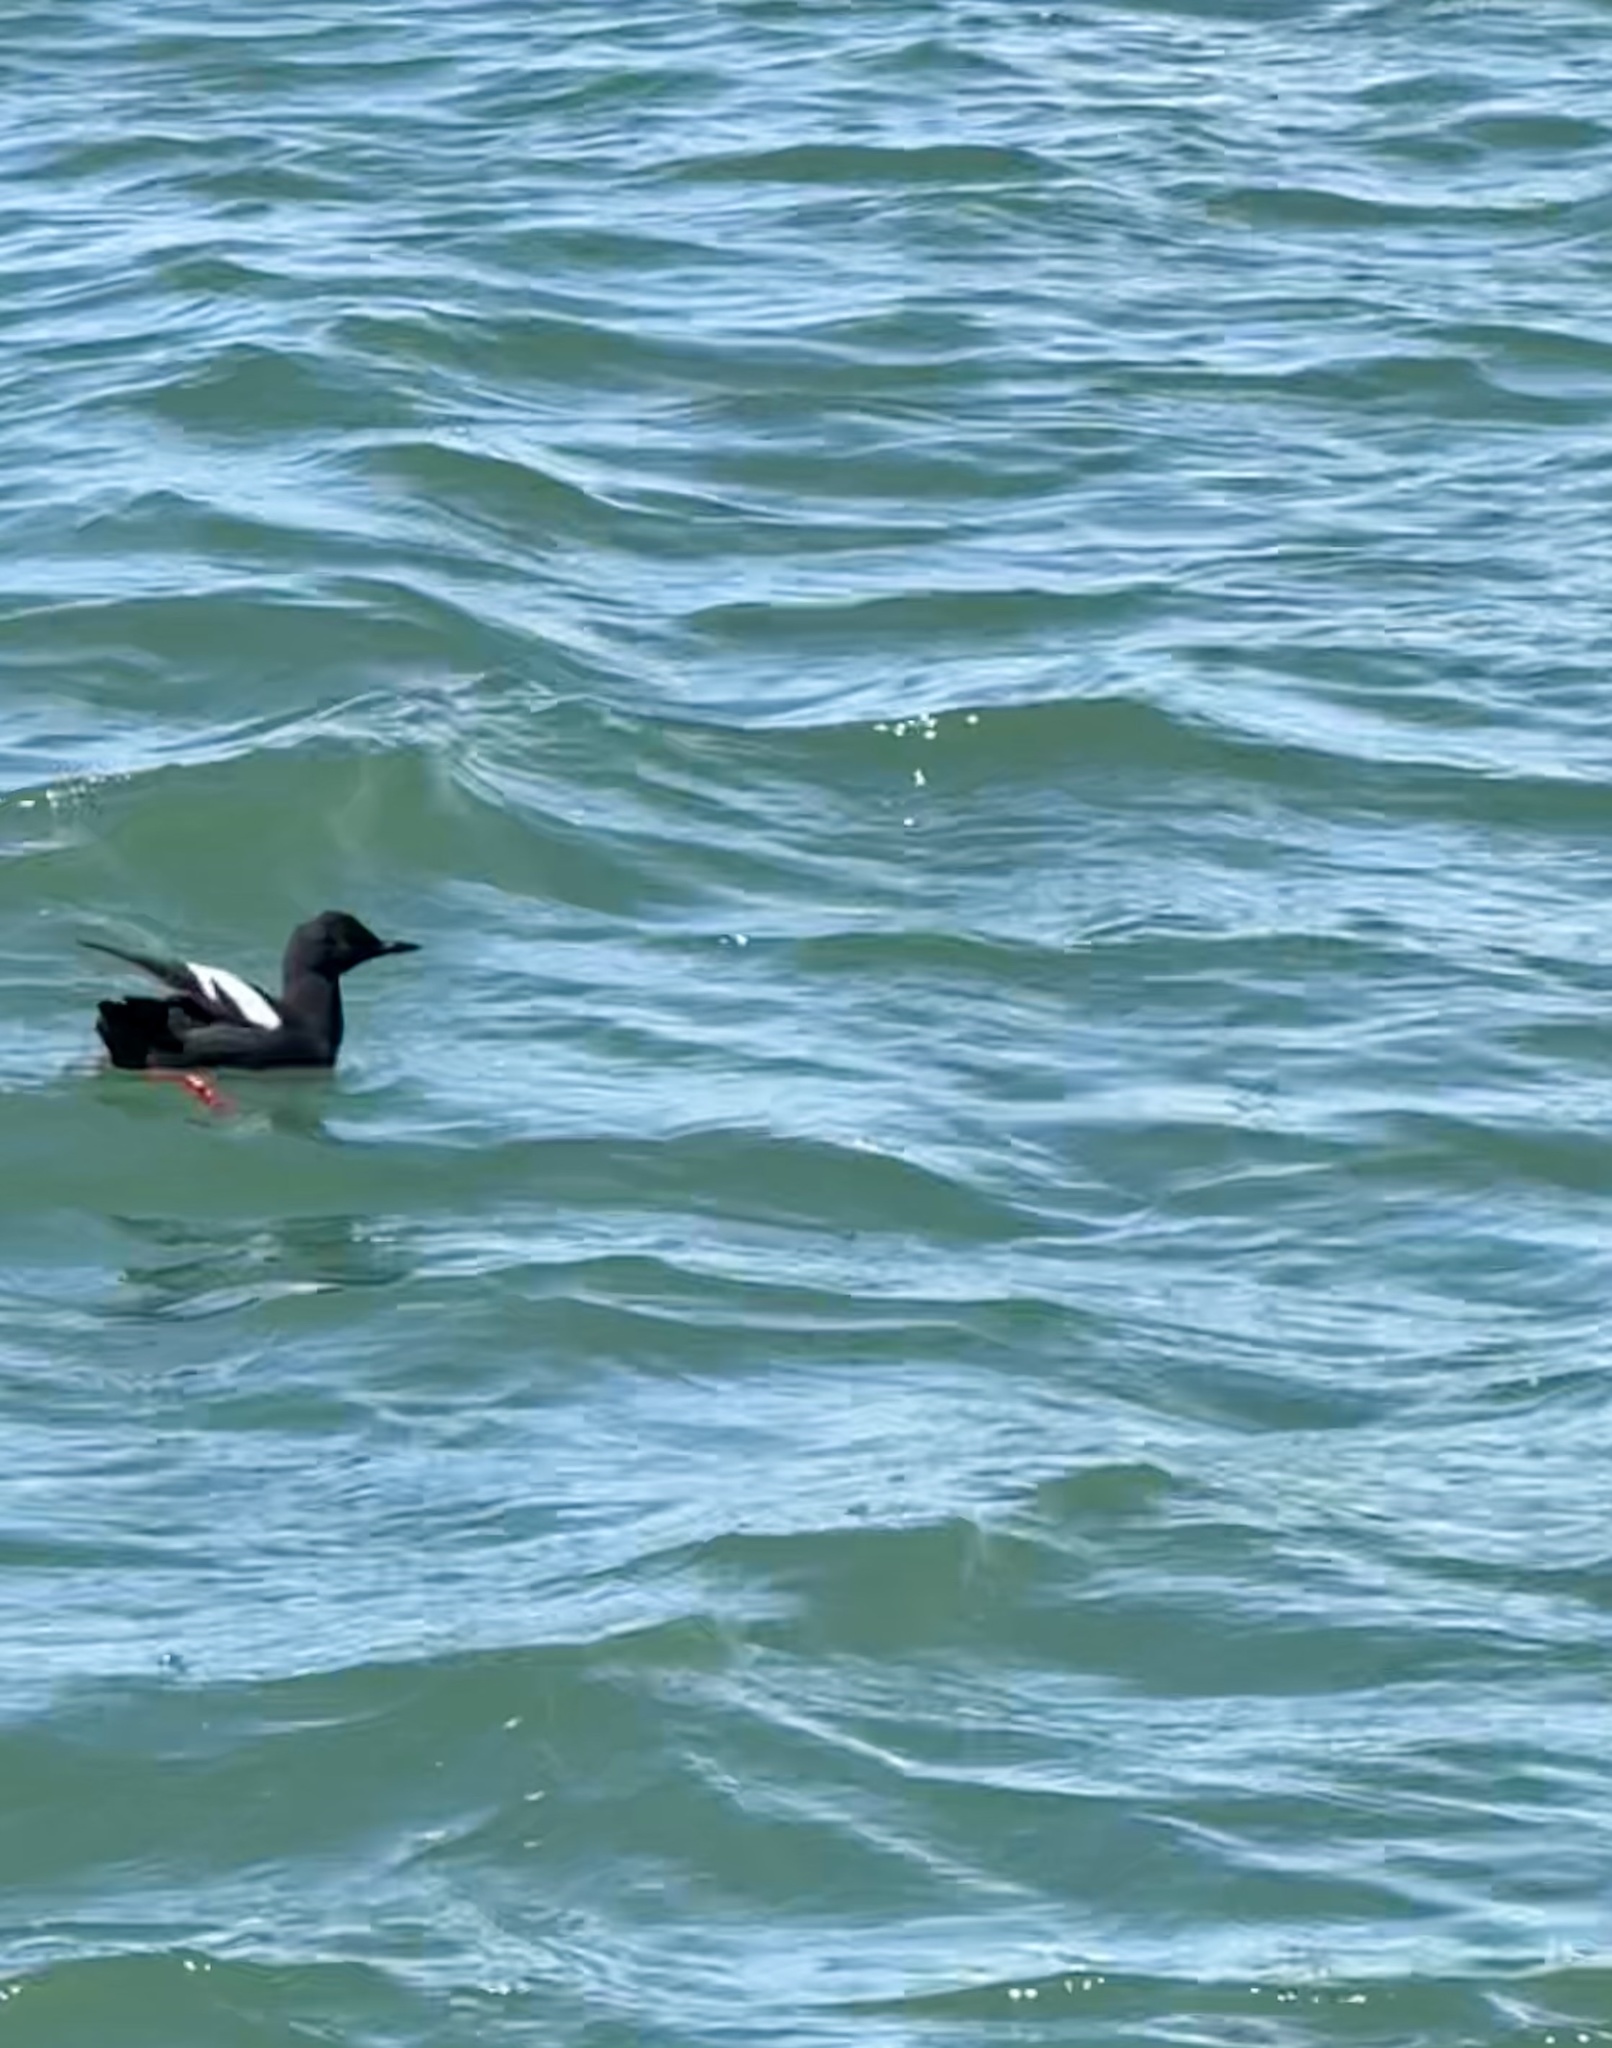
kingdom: Animalia
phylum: Chordata
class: Aves
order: Charadriiformes
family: Alcidae
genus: Cepphus
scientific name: Cepphus columba
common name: Pigeon guillemot
